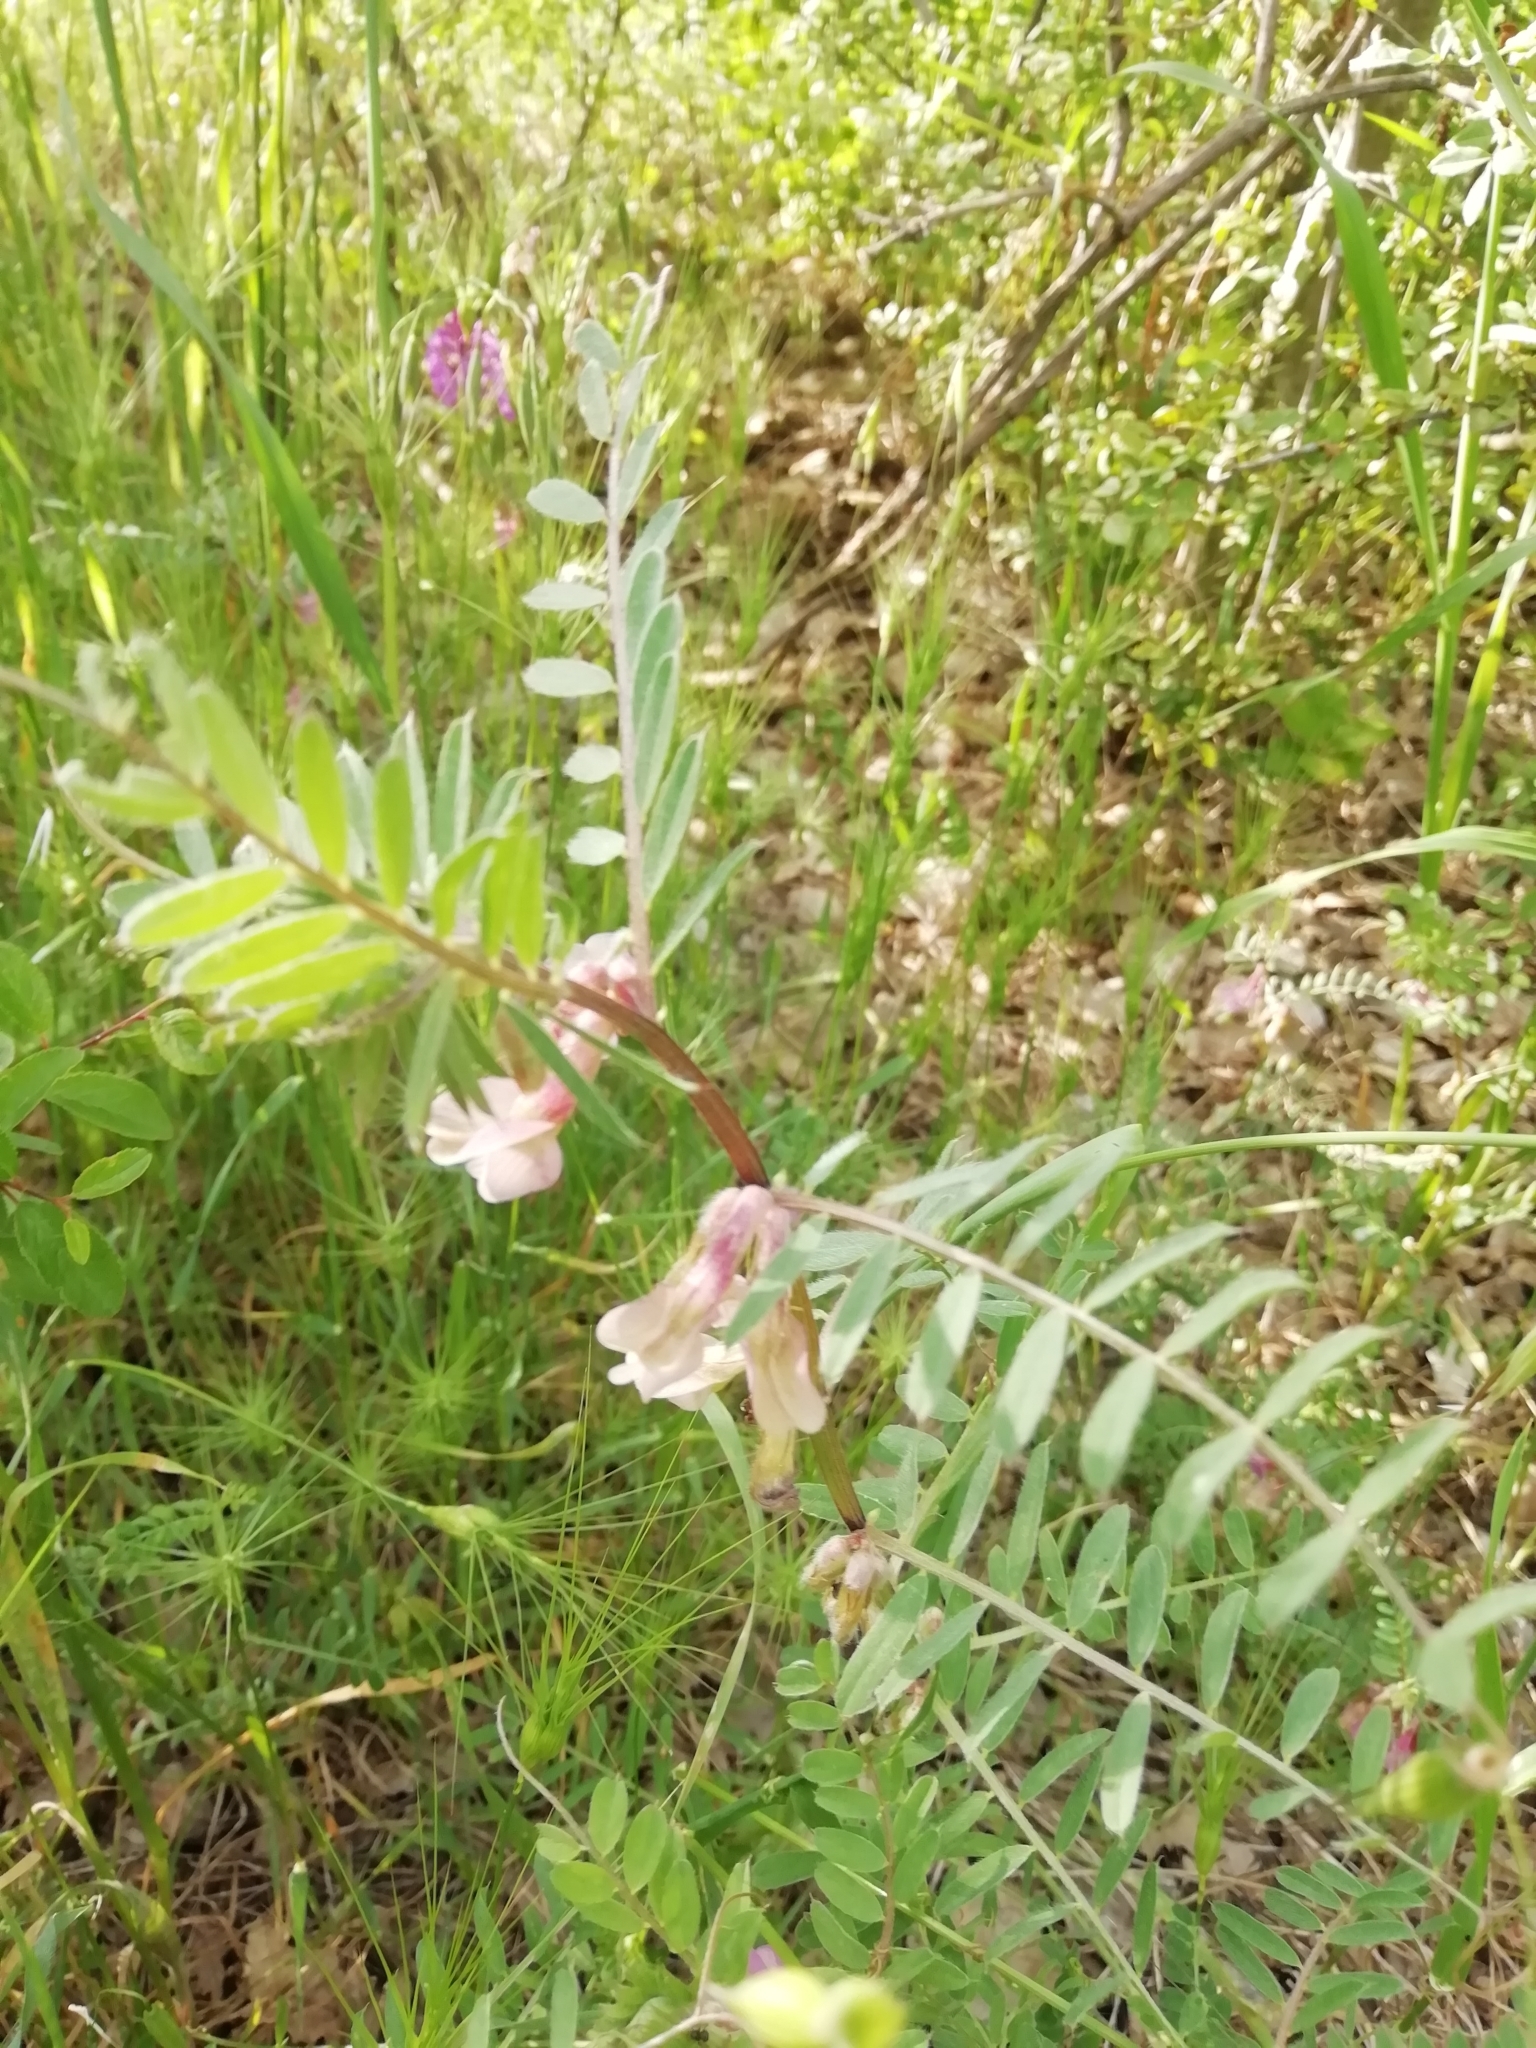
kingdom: Plantae
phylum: Tracheophyta
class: Magnoliopsida
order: Fabales
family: Fabaceae
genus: Vicia
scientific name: Vicia pannonica
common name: Hungarian vetch
